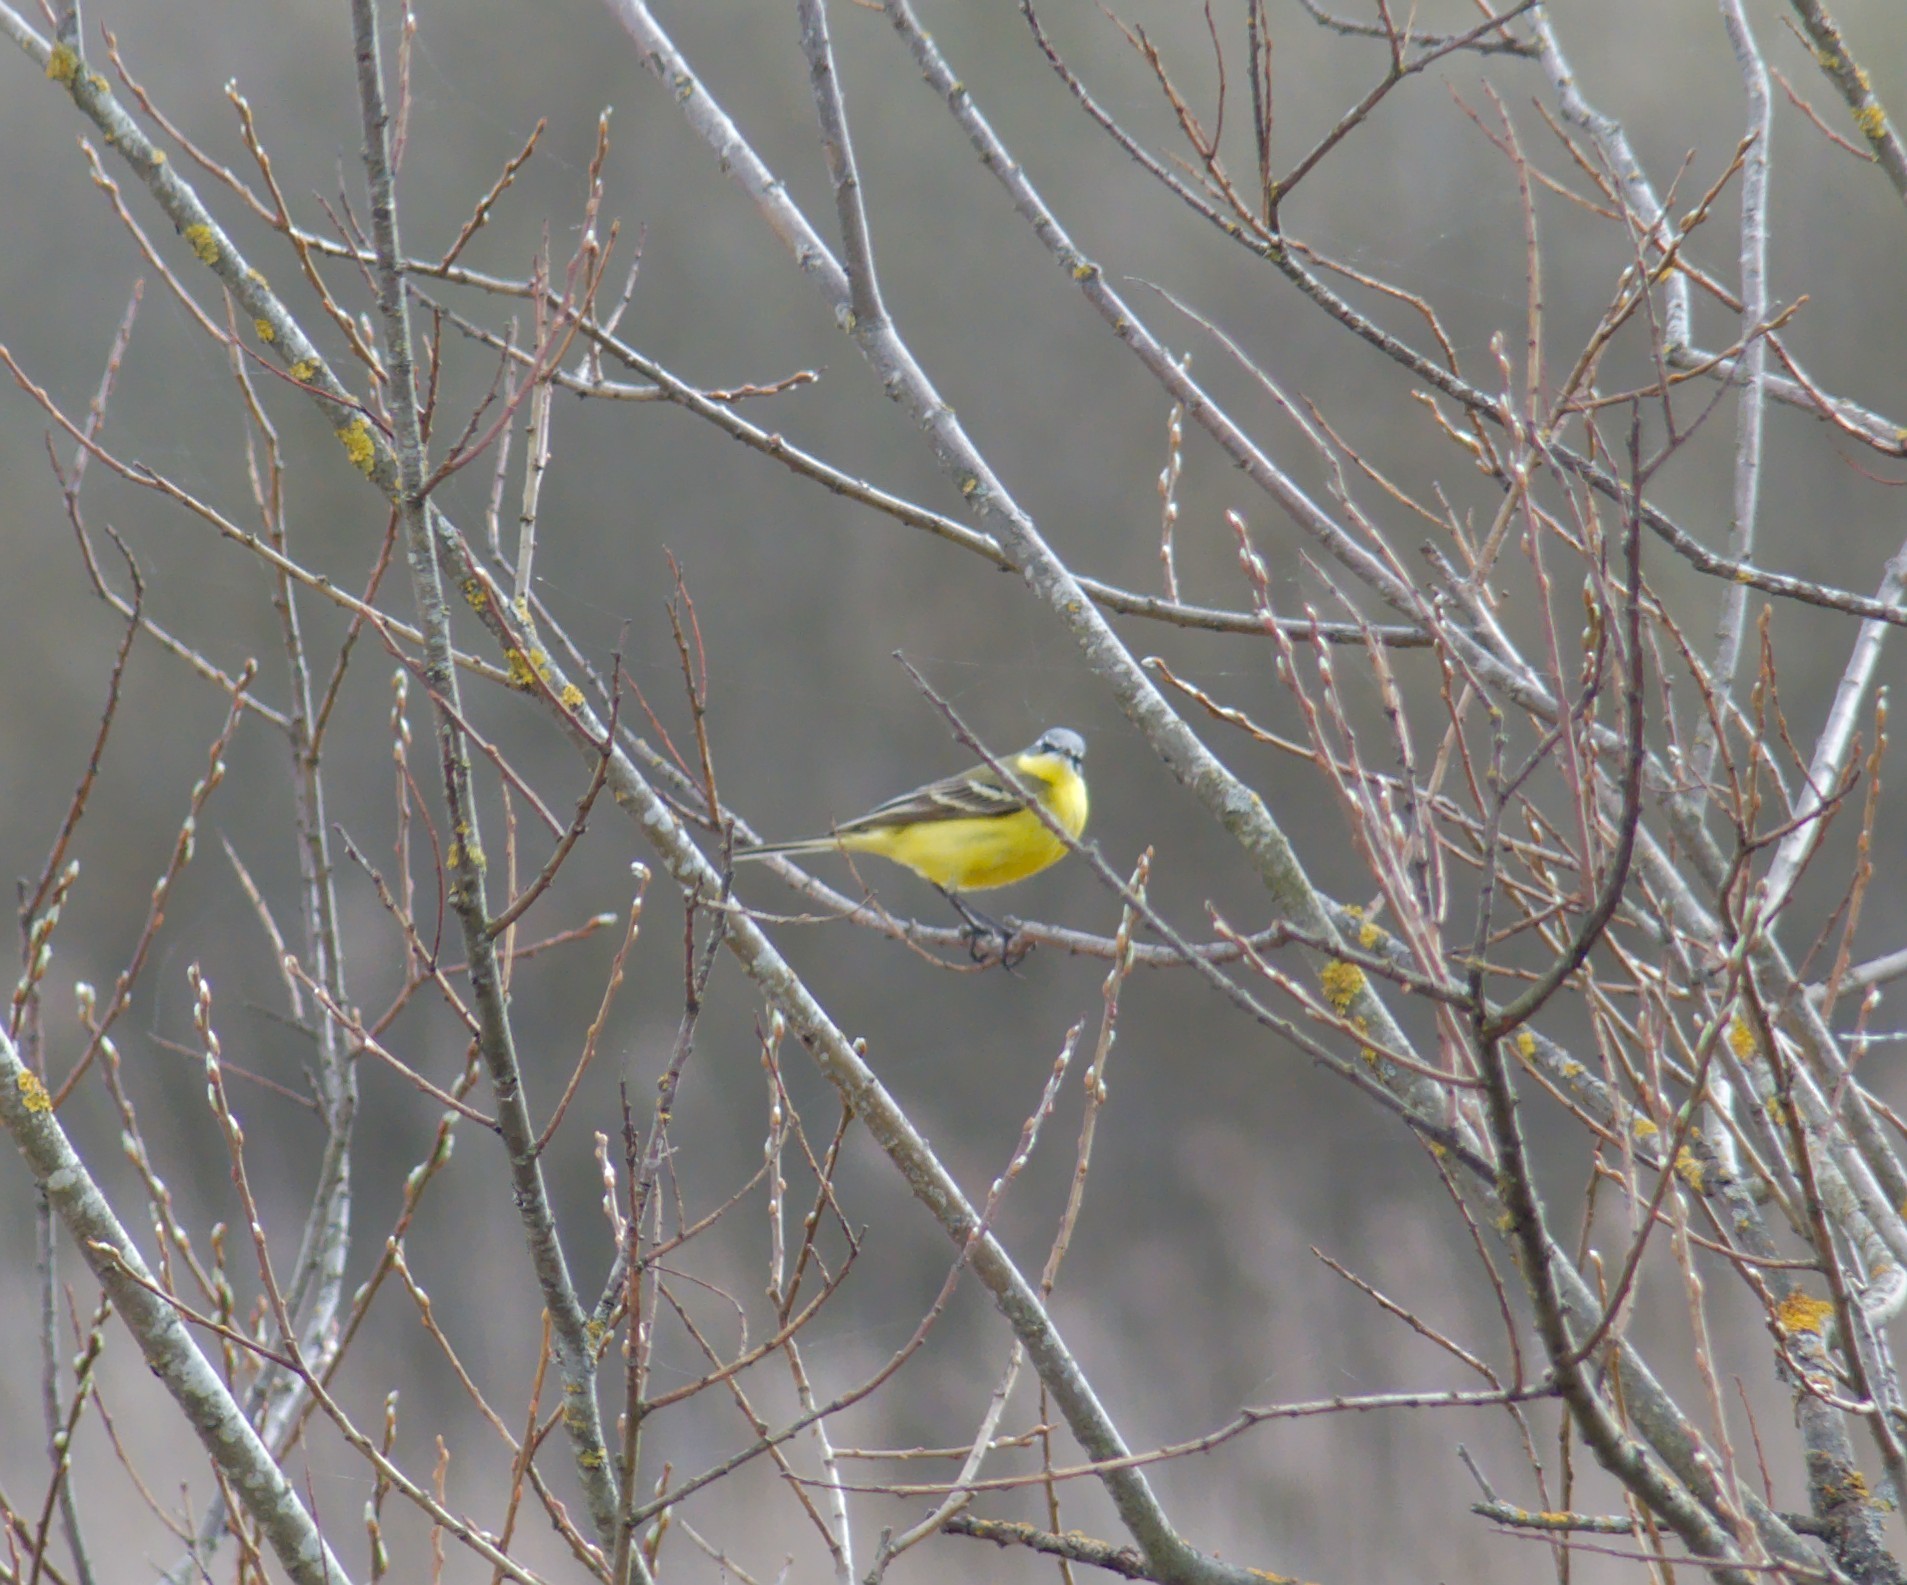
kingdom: Animalia
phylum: Chordata
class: Aves
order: Passeriformes
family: Motacillidae
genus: Motacilla
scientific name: Motacilla flava
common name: Western yellow wagtail
